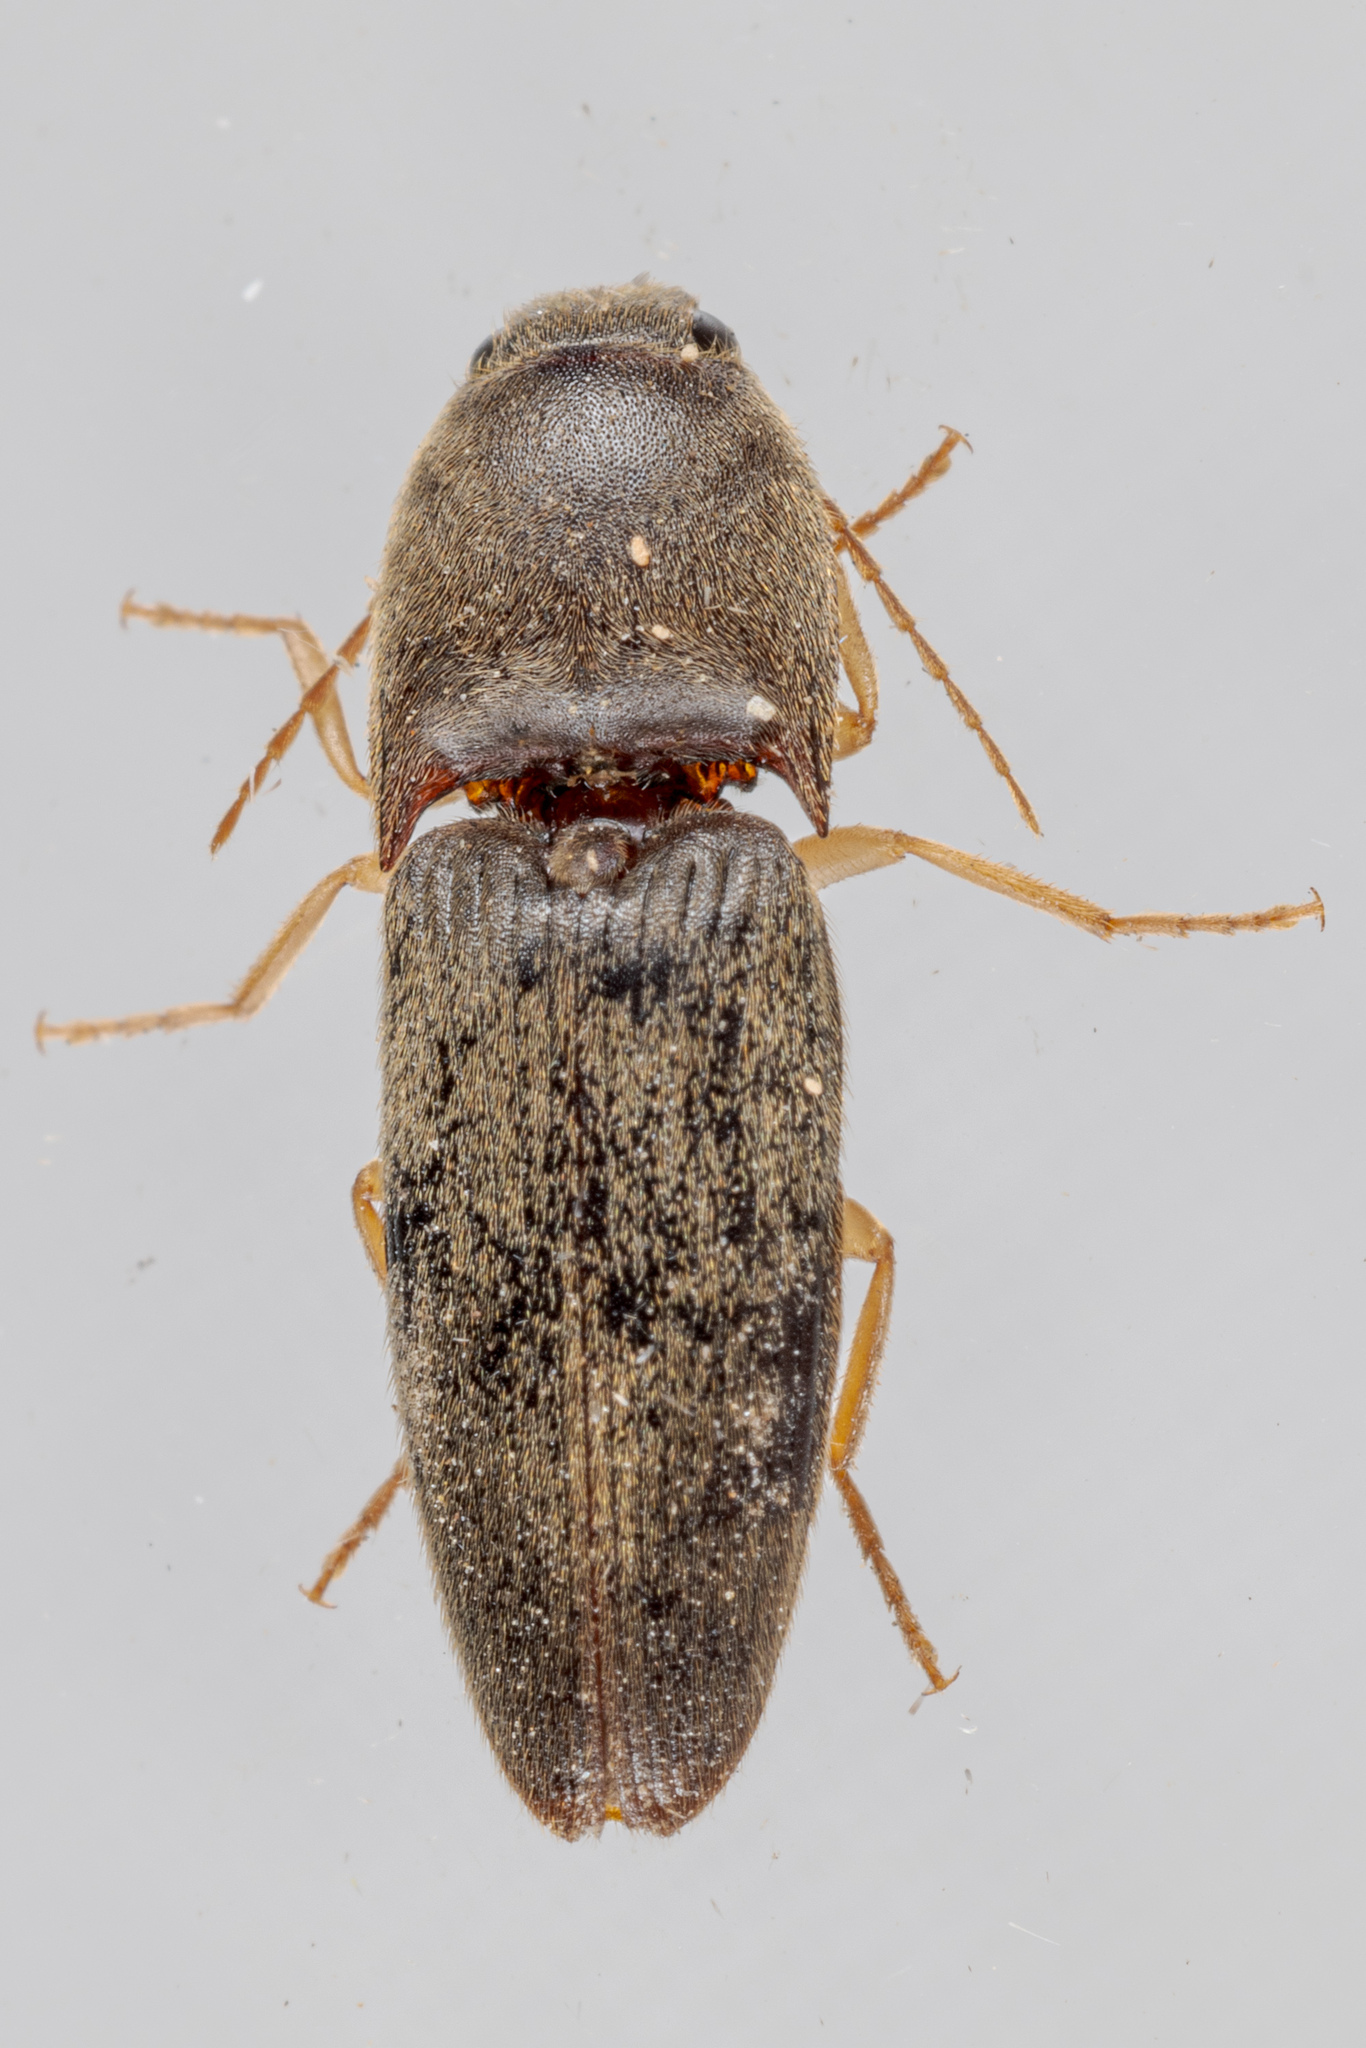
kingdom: Animalia
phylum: Arthropoda
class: Insecta
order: Coleoptera
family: Elateridae
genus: Conoderus
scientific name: Conoderus exsul
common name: Click beetle
